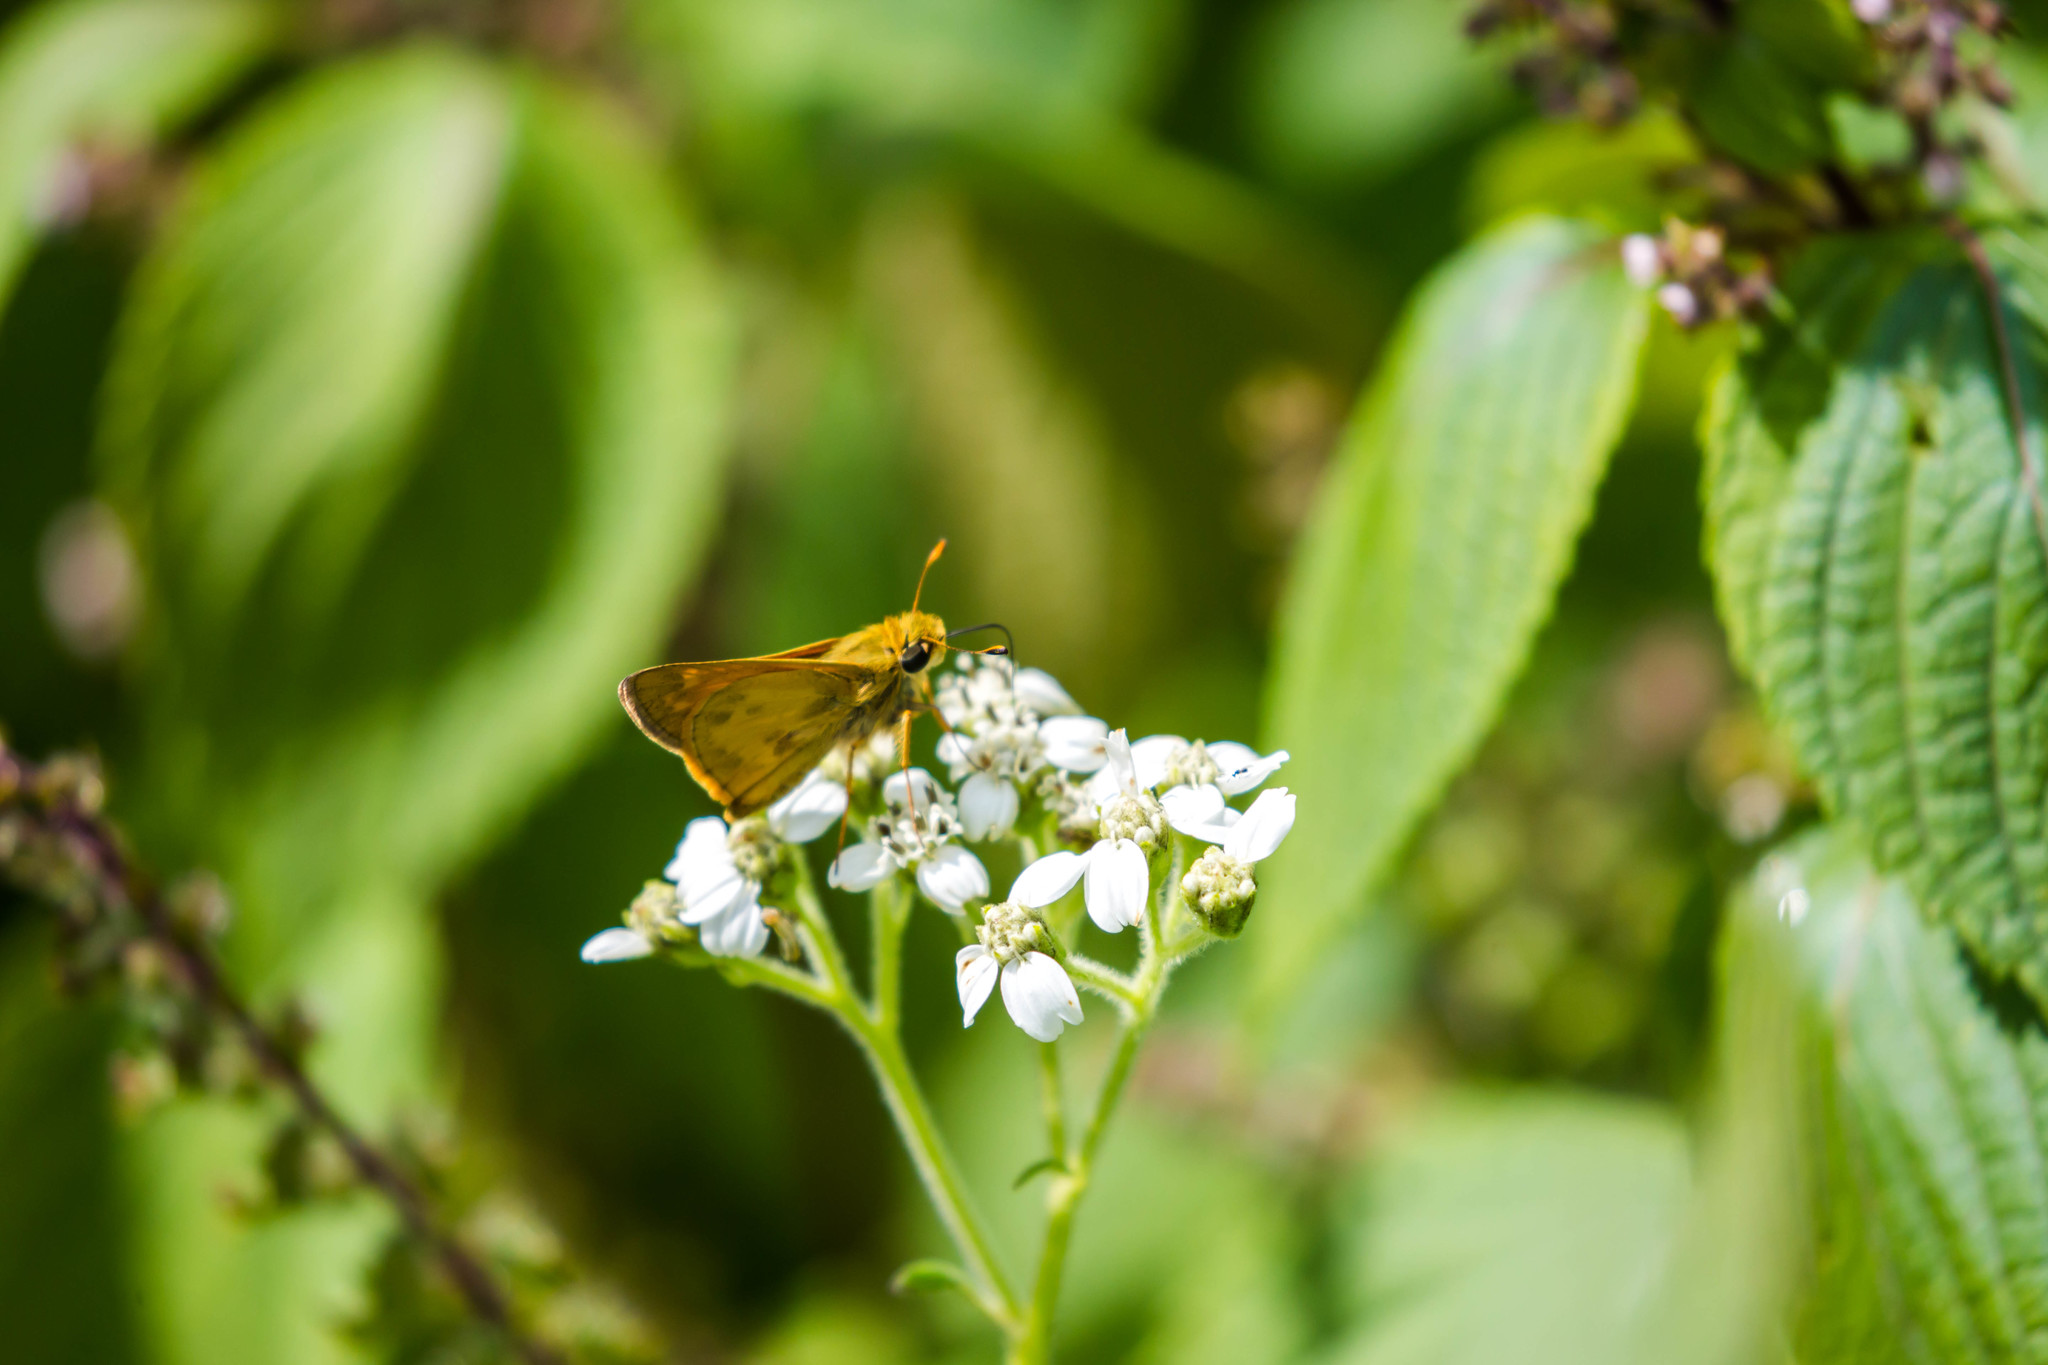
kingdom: Animalia
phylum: Arthropoda
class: Insecta
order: Lepidoptera
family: Hesperiidae
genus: Atalopedes
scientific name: Atalopedes
